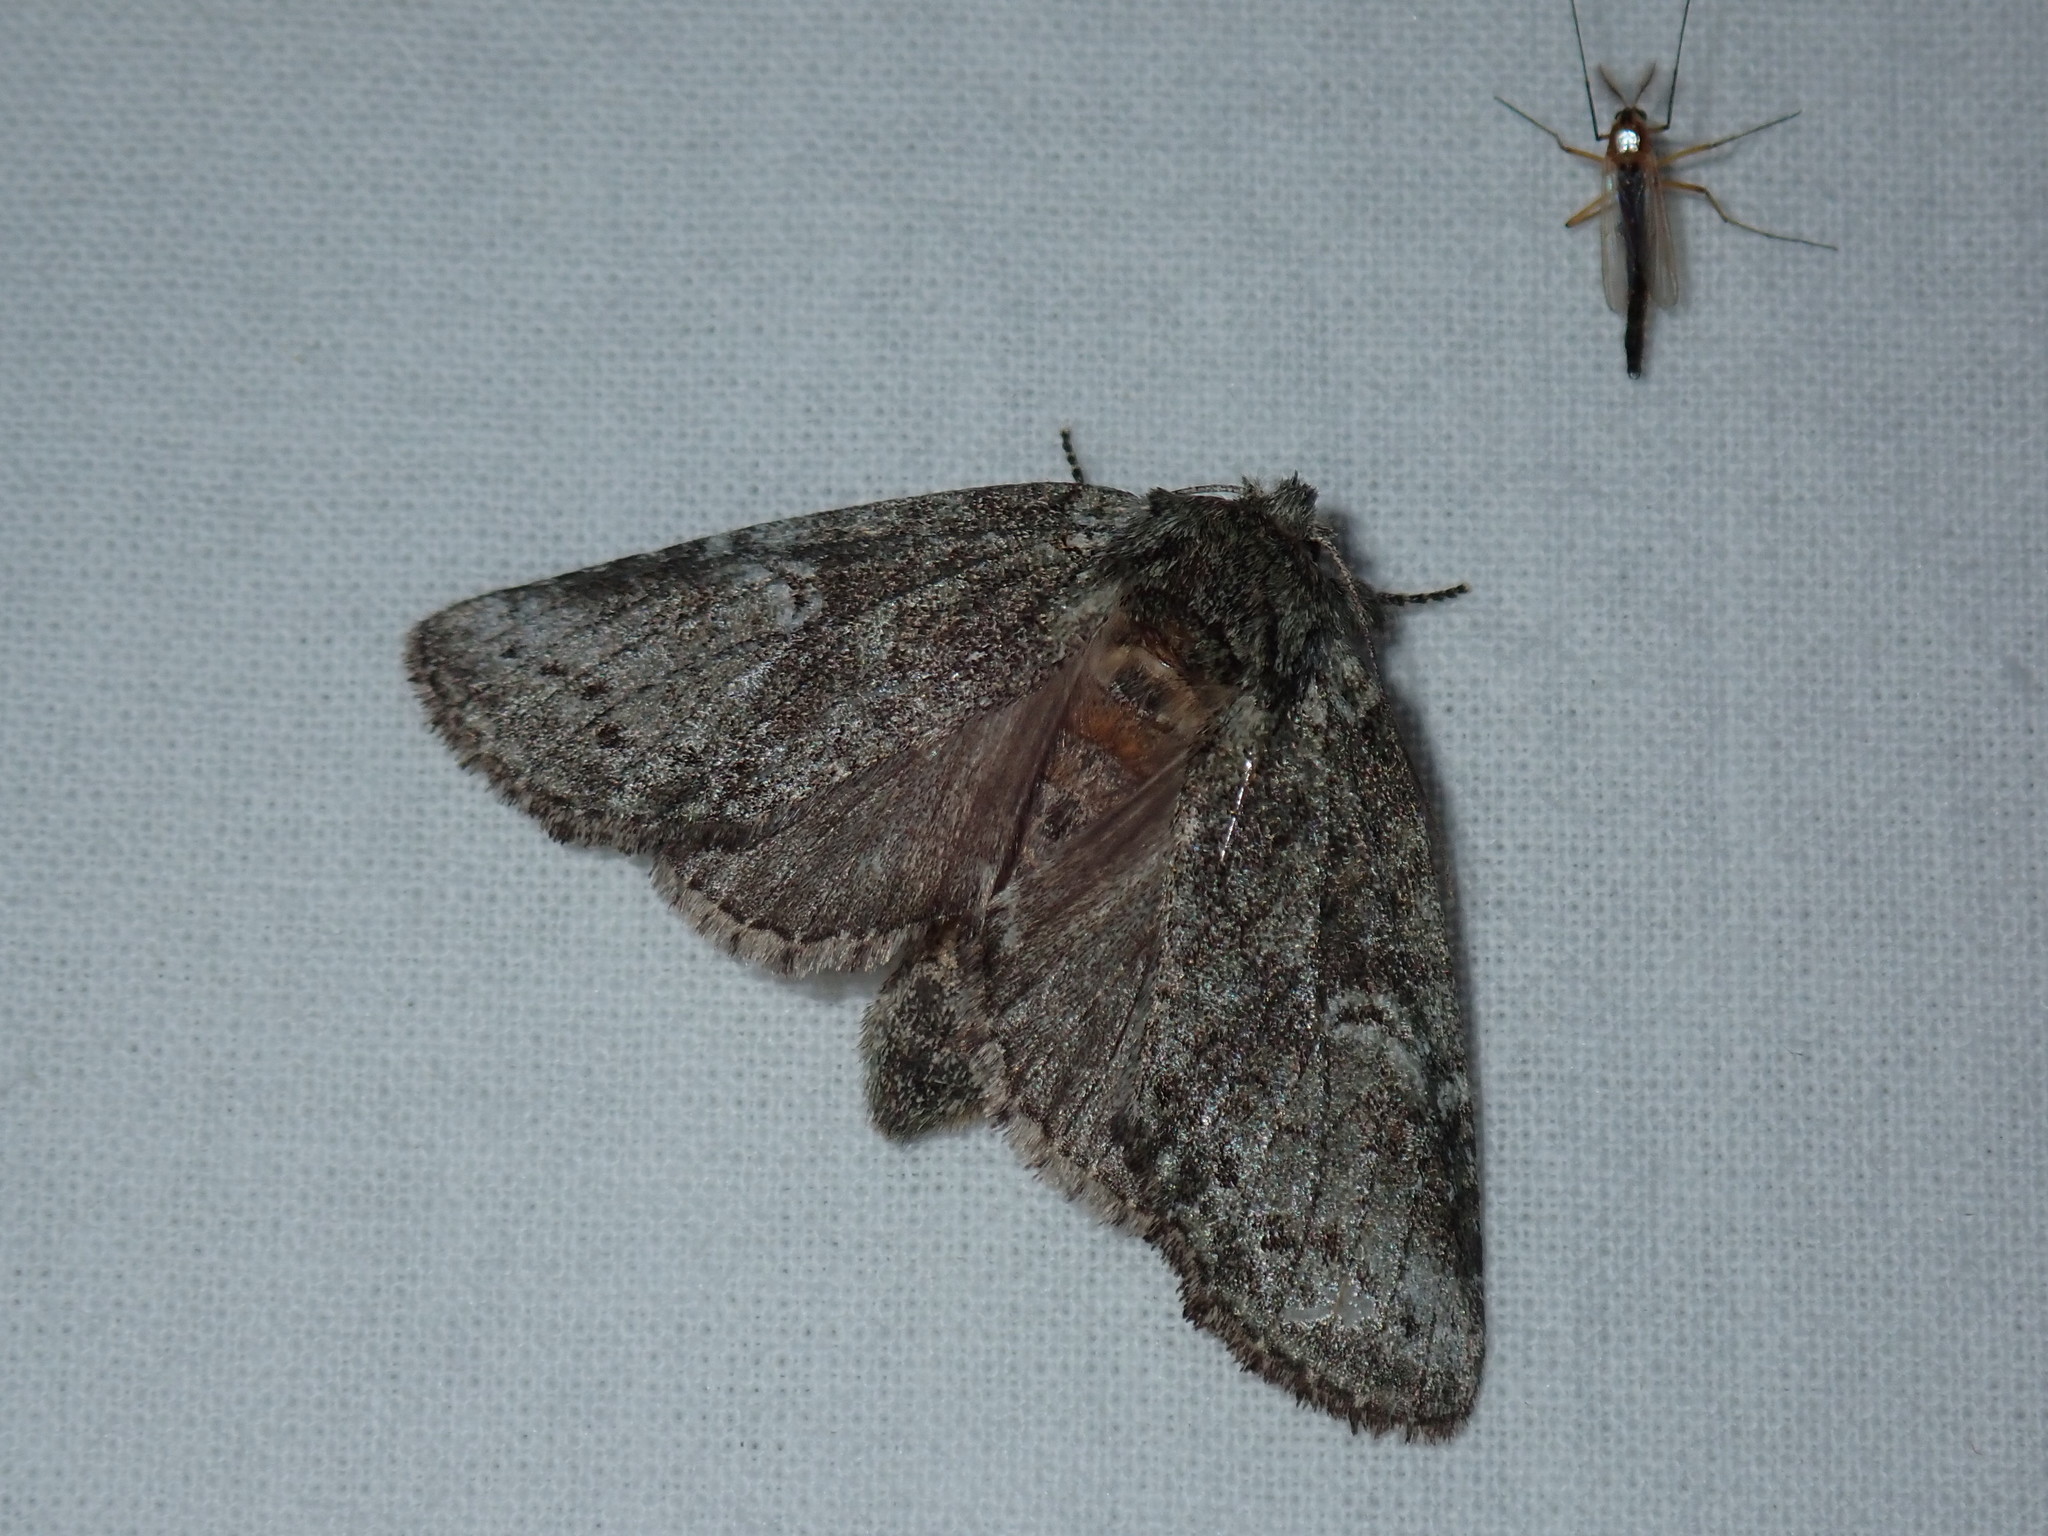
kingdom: Animalia
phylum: Arthropoda
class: Insecta
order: Lepidoptera
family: Notodontidae
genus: Disphragis
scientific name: Disphragis Cecrita guttivitta
